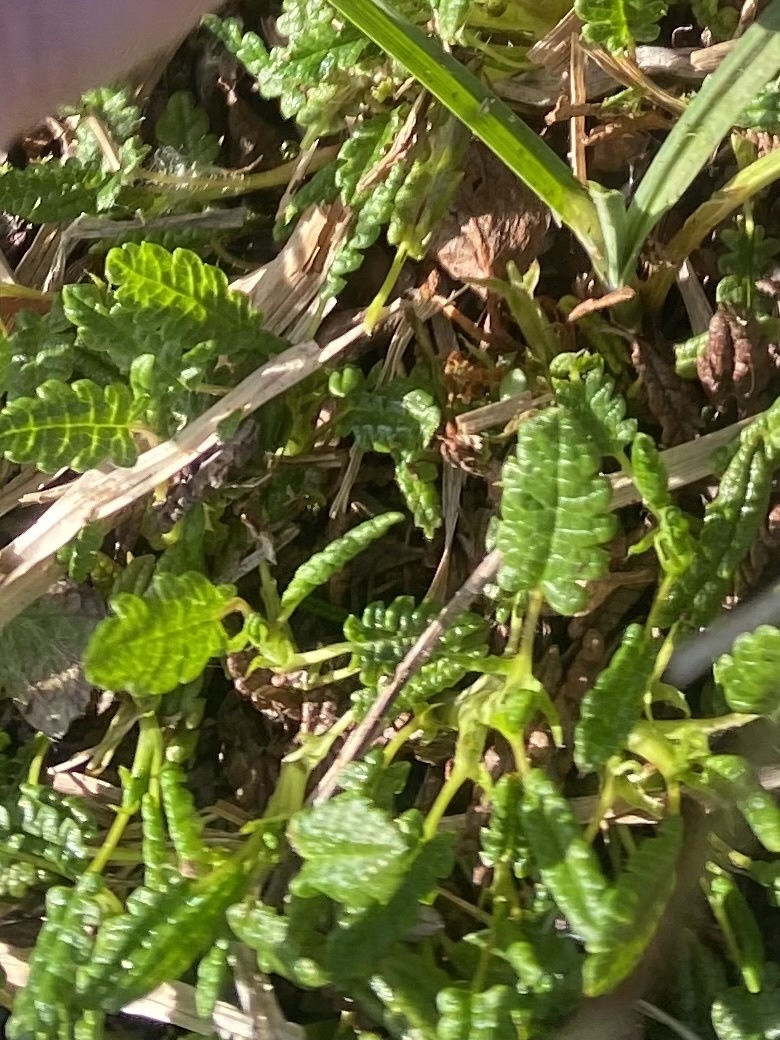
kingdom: Plantae
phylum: Tracheophyta
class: Magnoliopsida
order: Rosales
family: Rosaceae
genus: Dryas
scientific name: Dryas octopetala
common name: Eight-petal mountain-avens
